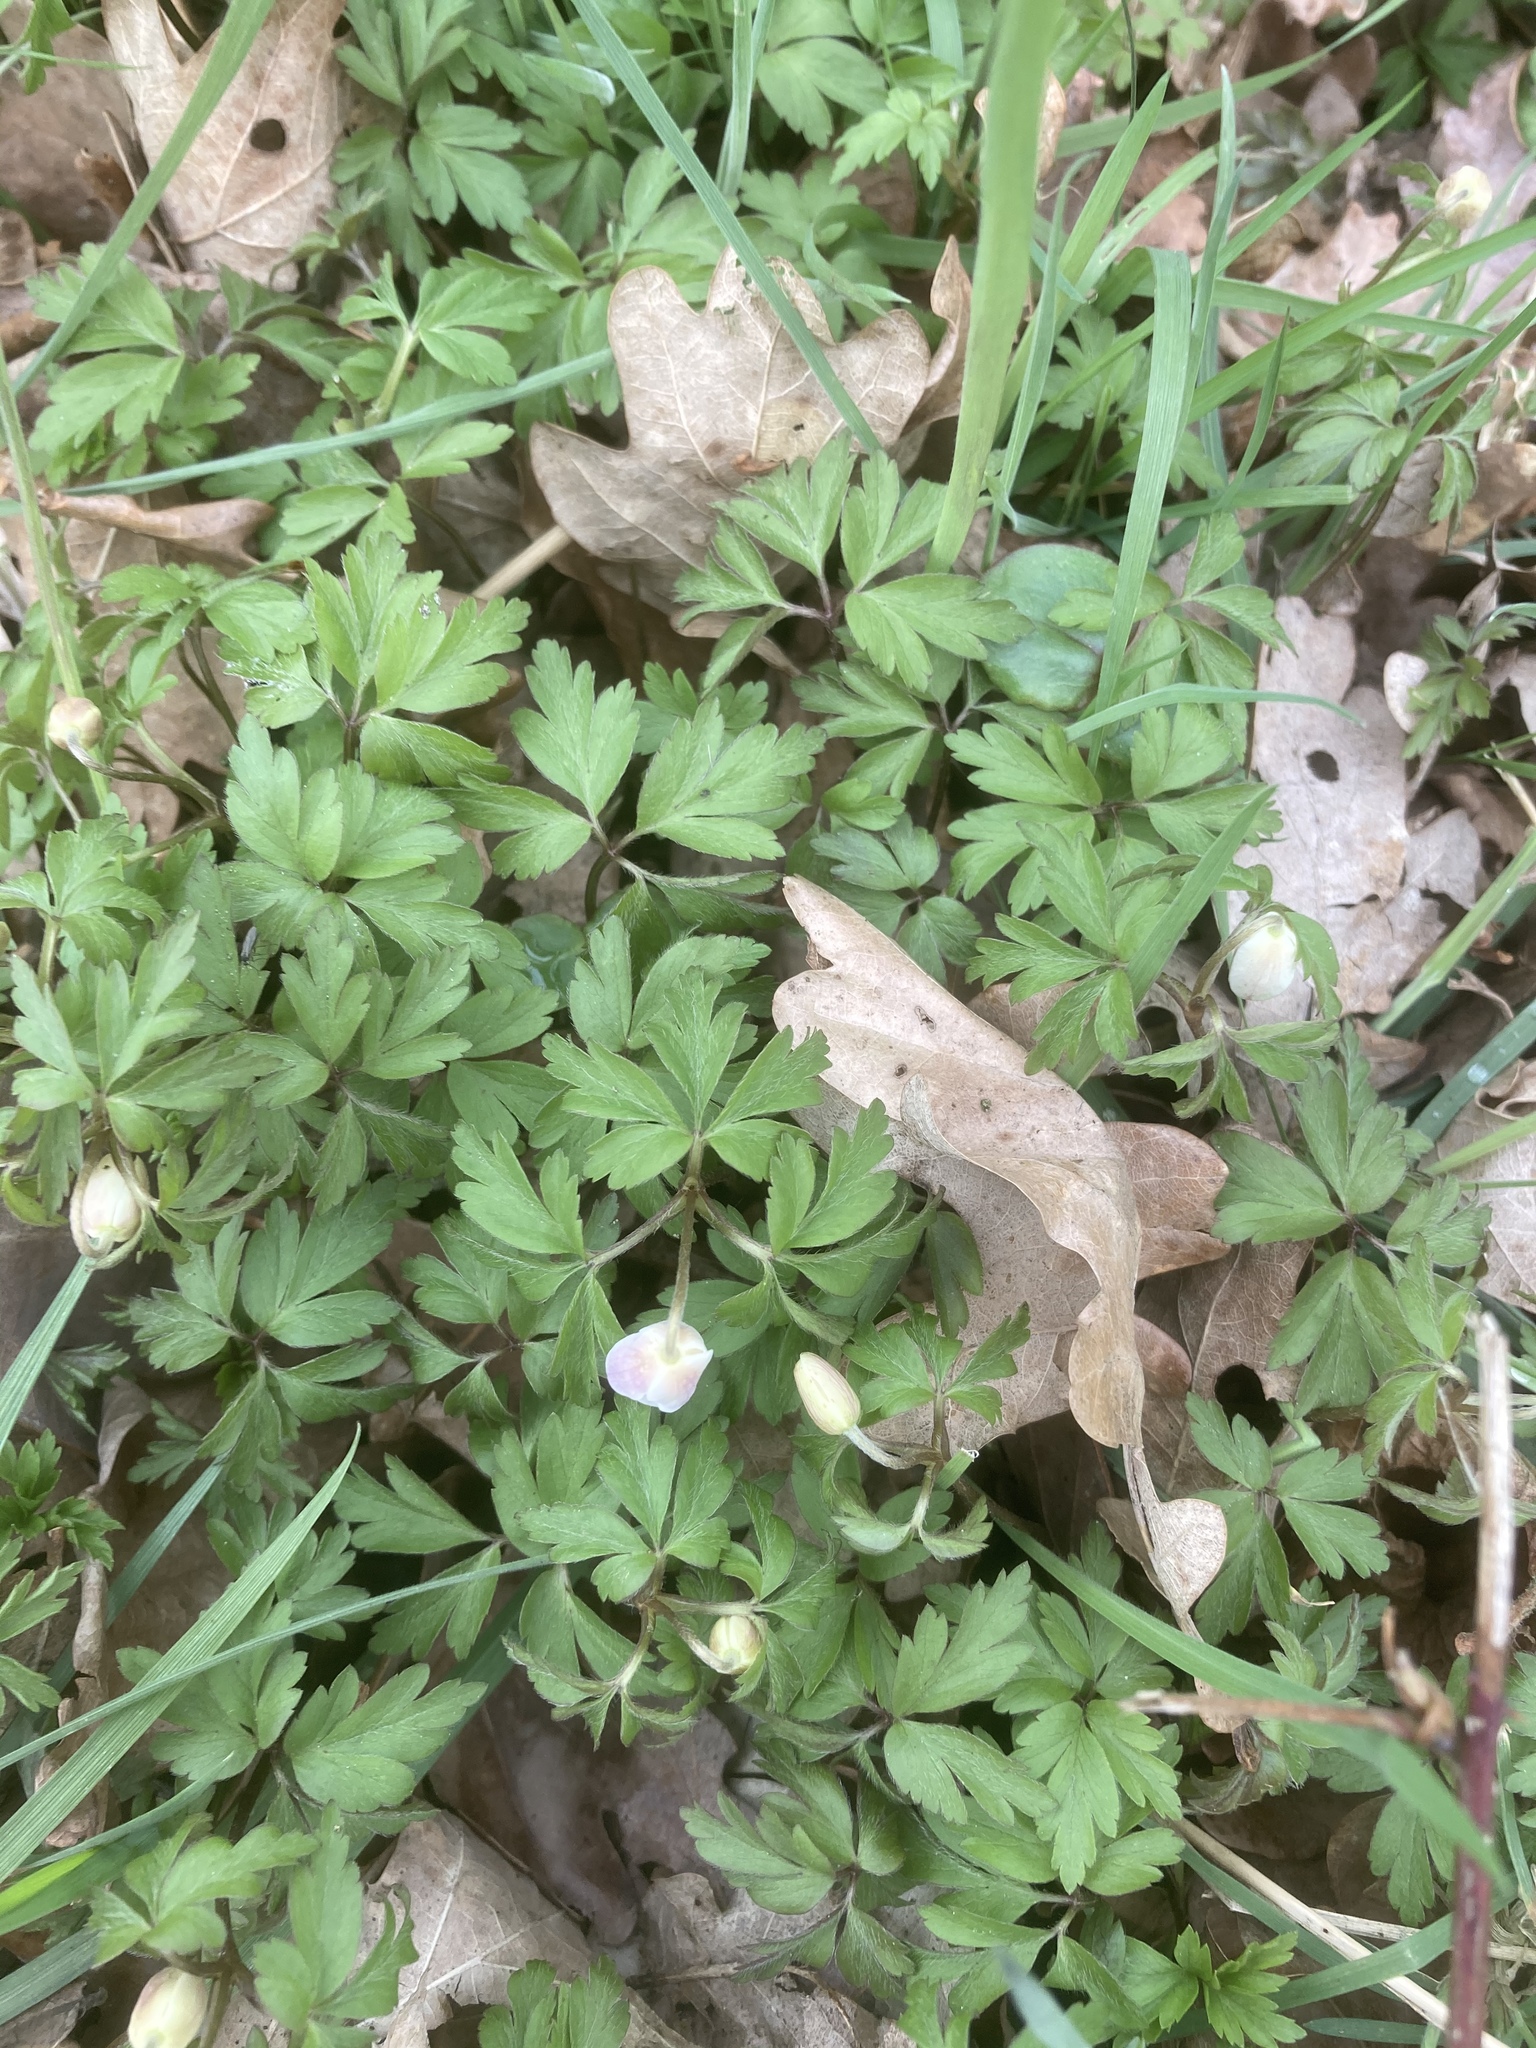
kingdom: Plantae
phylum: Tracheophyta
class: Magnoliopsida
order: Ranunculales
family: Ranunculaceae
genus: Anemone
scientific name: Anemone nemorosa
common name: Wood anemone
